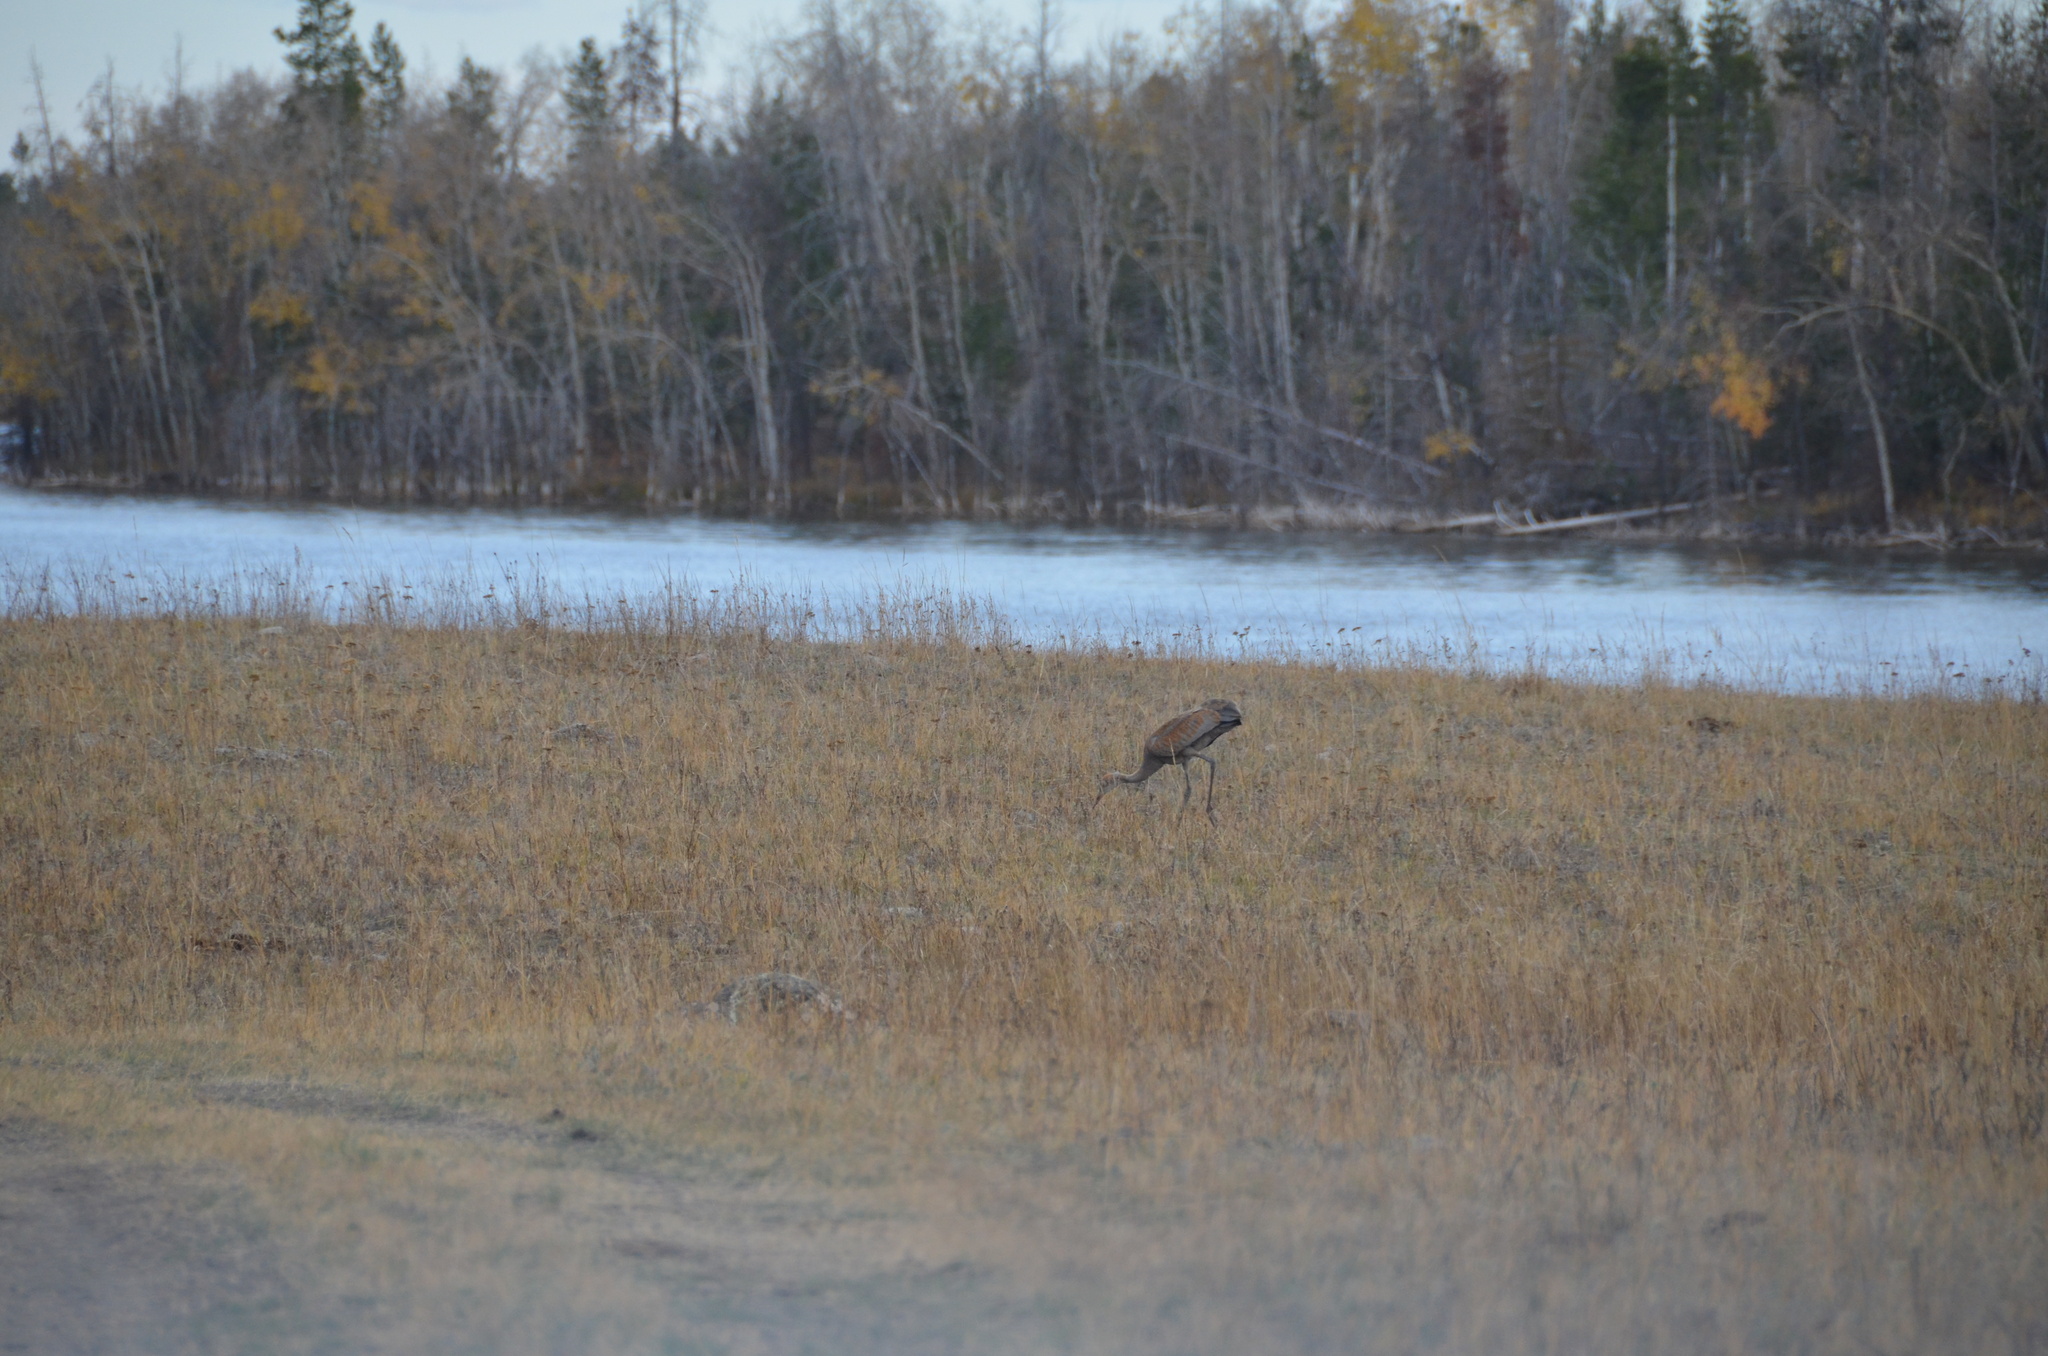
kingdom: Animalia
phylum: Chordata
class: Aves
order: Gruiformes
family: Gruidae
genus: Grus
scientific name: Grus canadensis
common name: Sandhill crane
